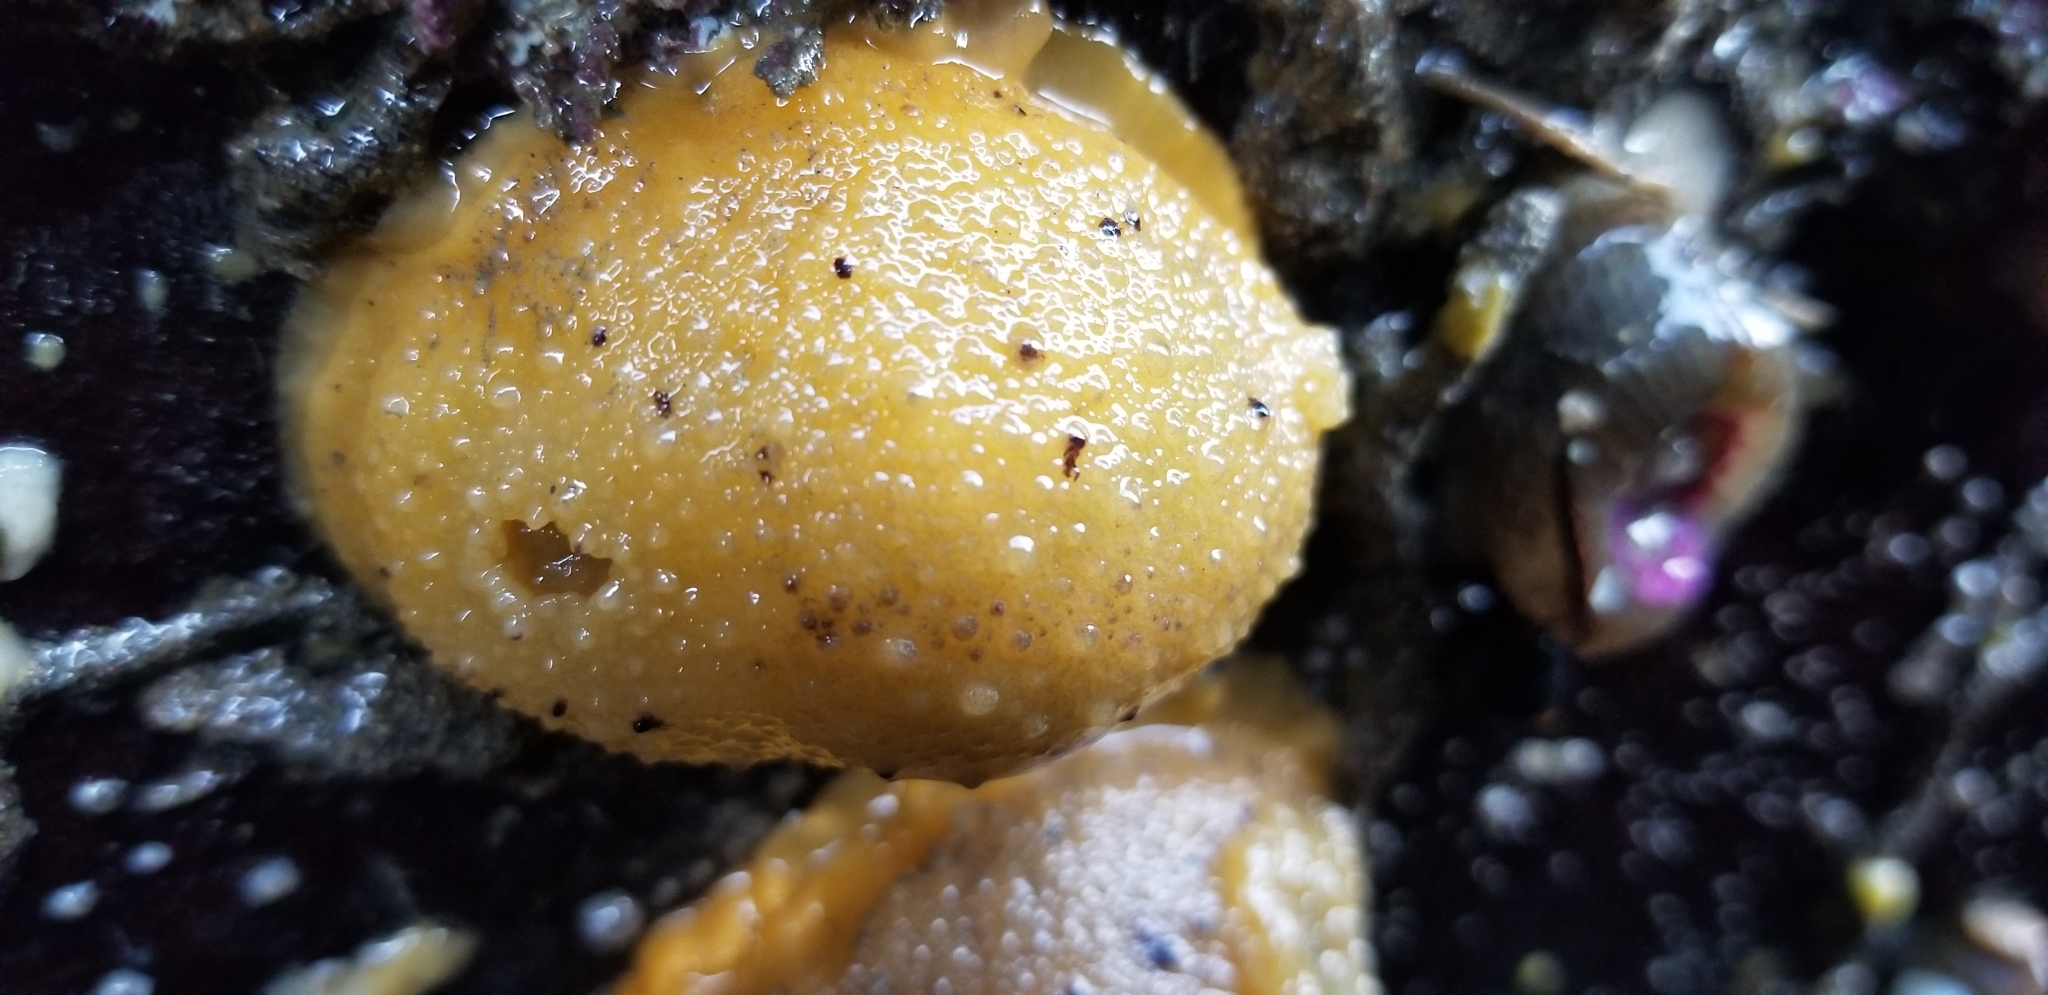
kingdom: Animalia
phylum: Mollusca
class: Gastropoda
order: Nudibranchia
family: Dorididae
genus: Doris
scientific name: Doris montereyensis
